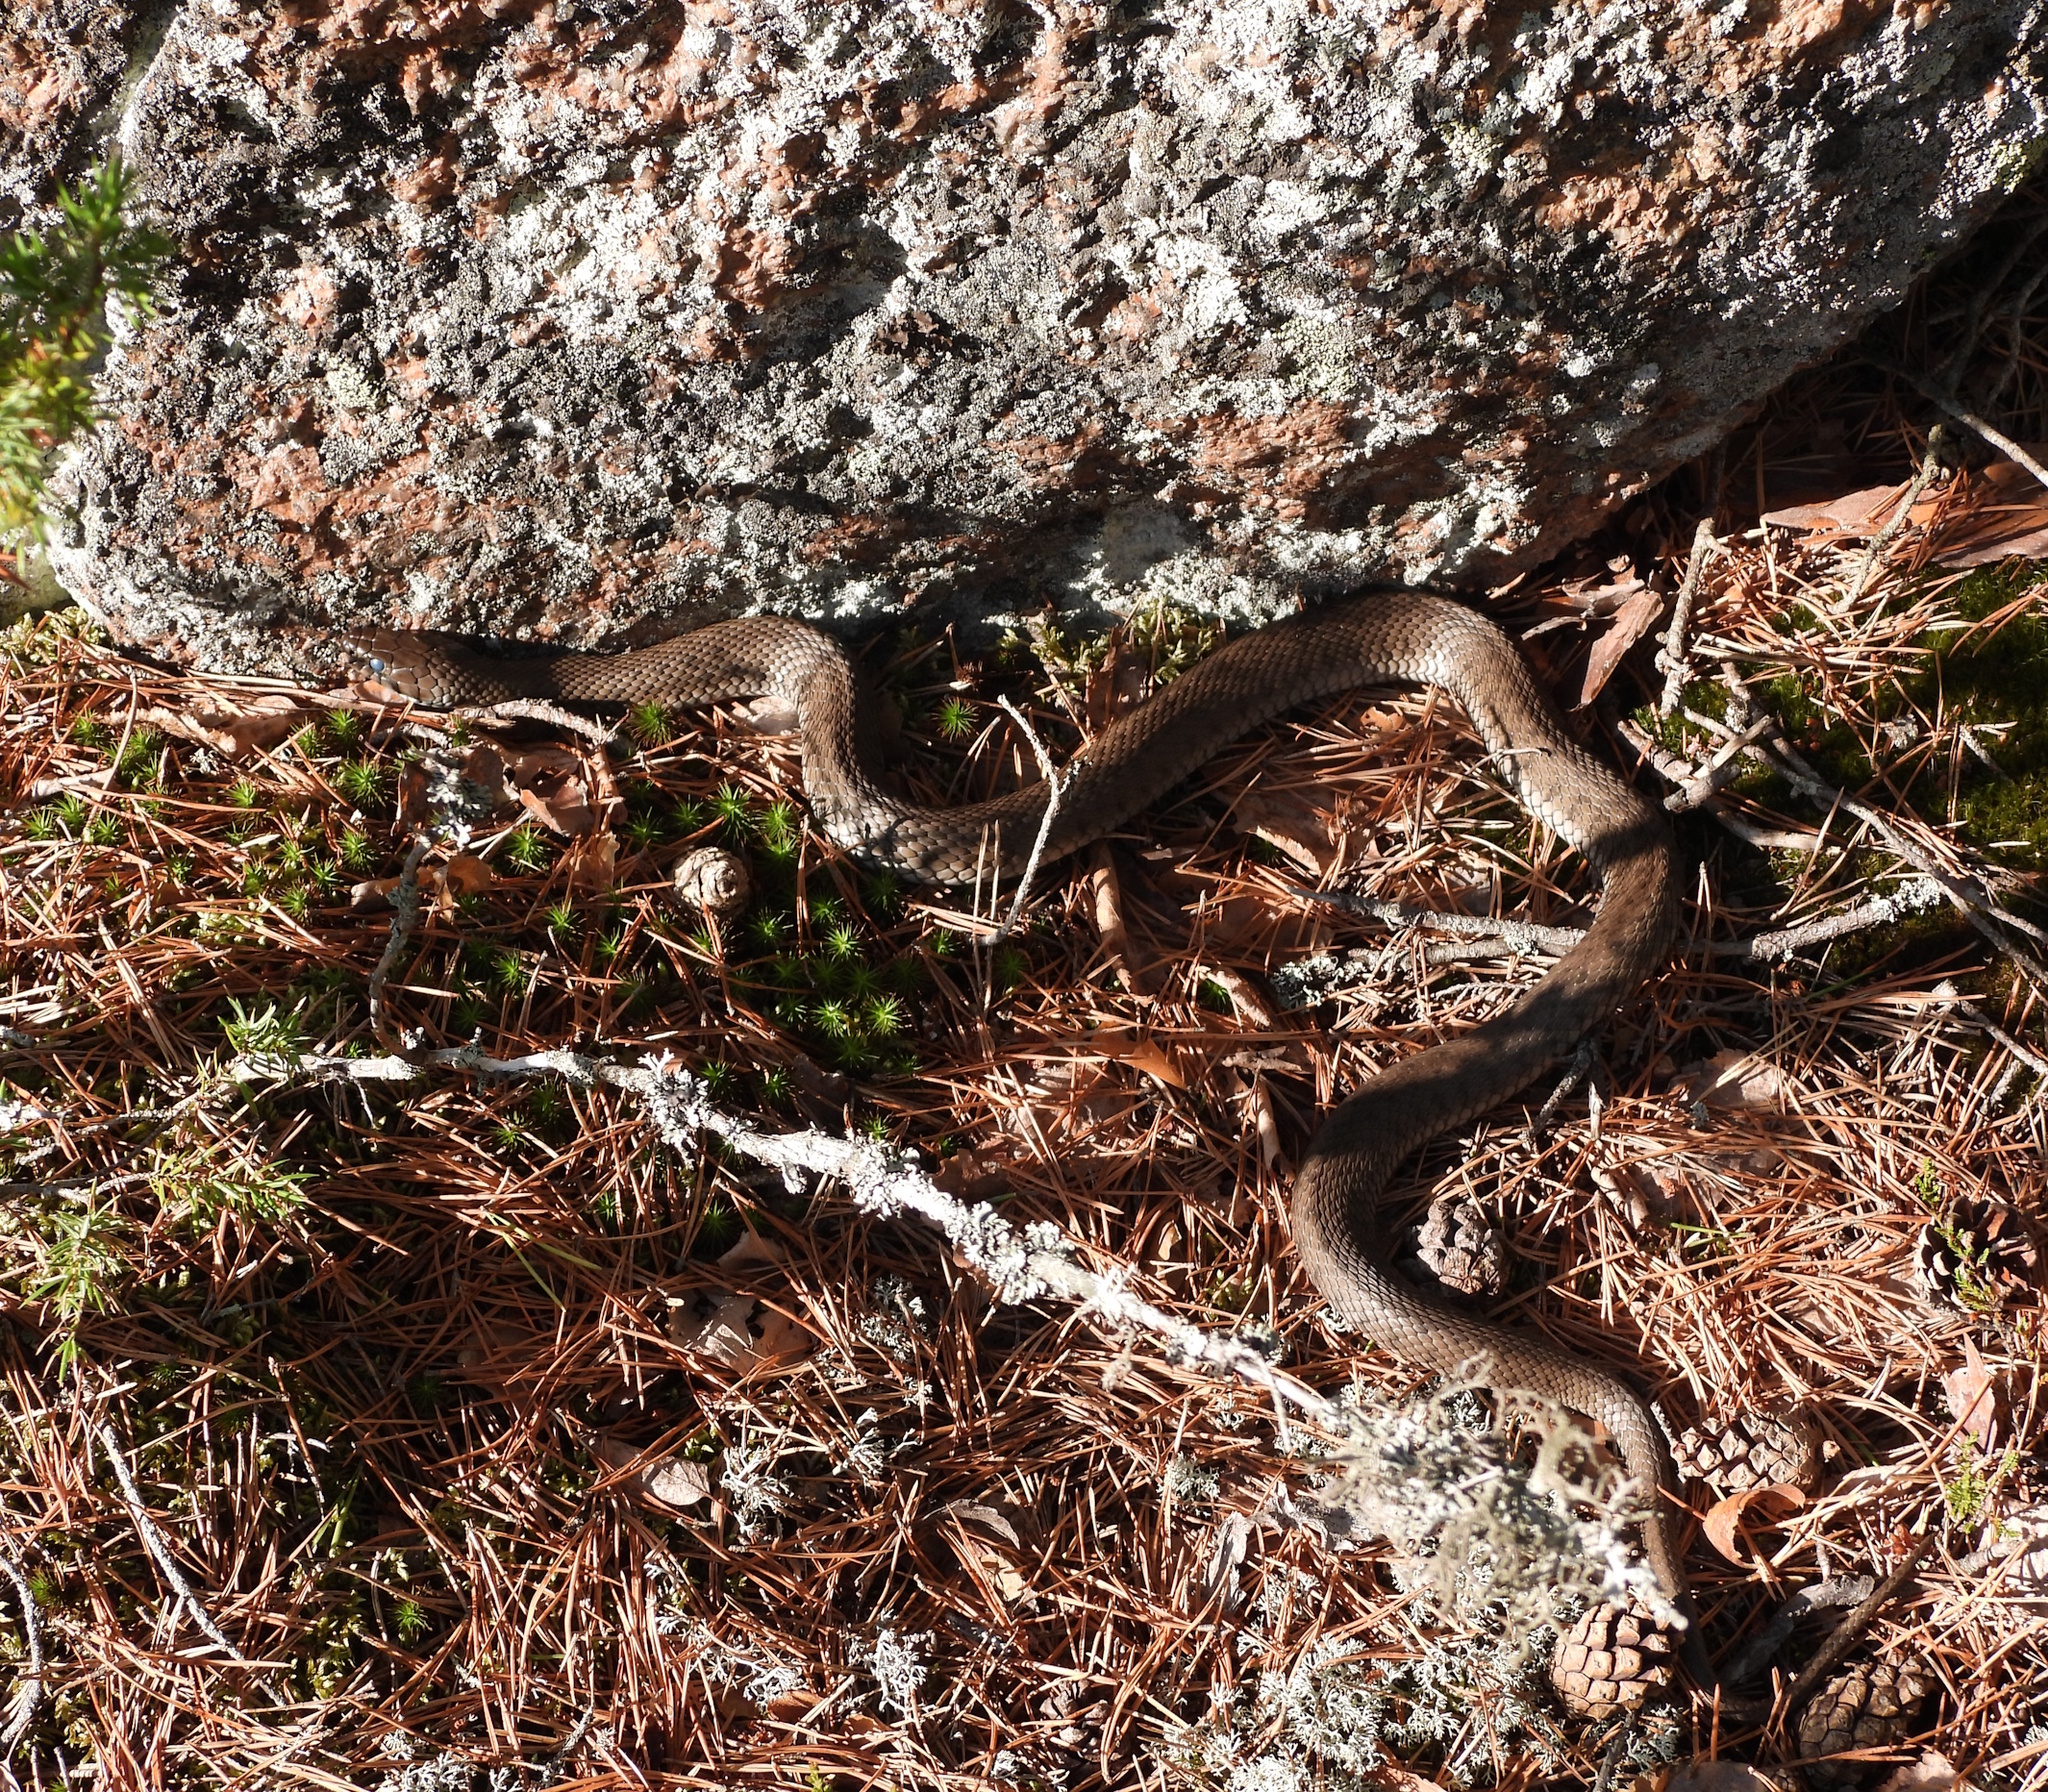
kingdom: Animalia
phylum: Chordata
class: Squamata
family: Colubridae
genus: Natrix
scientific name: Natrix natrix
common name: Grass snake
